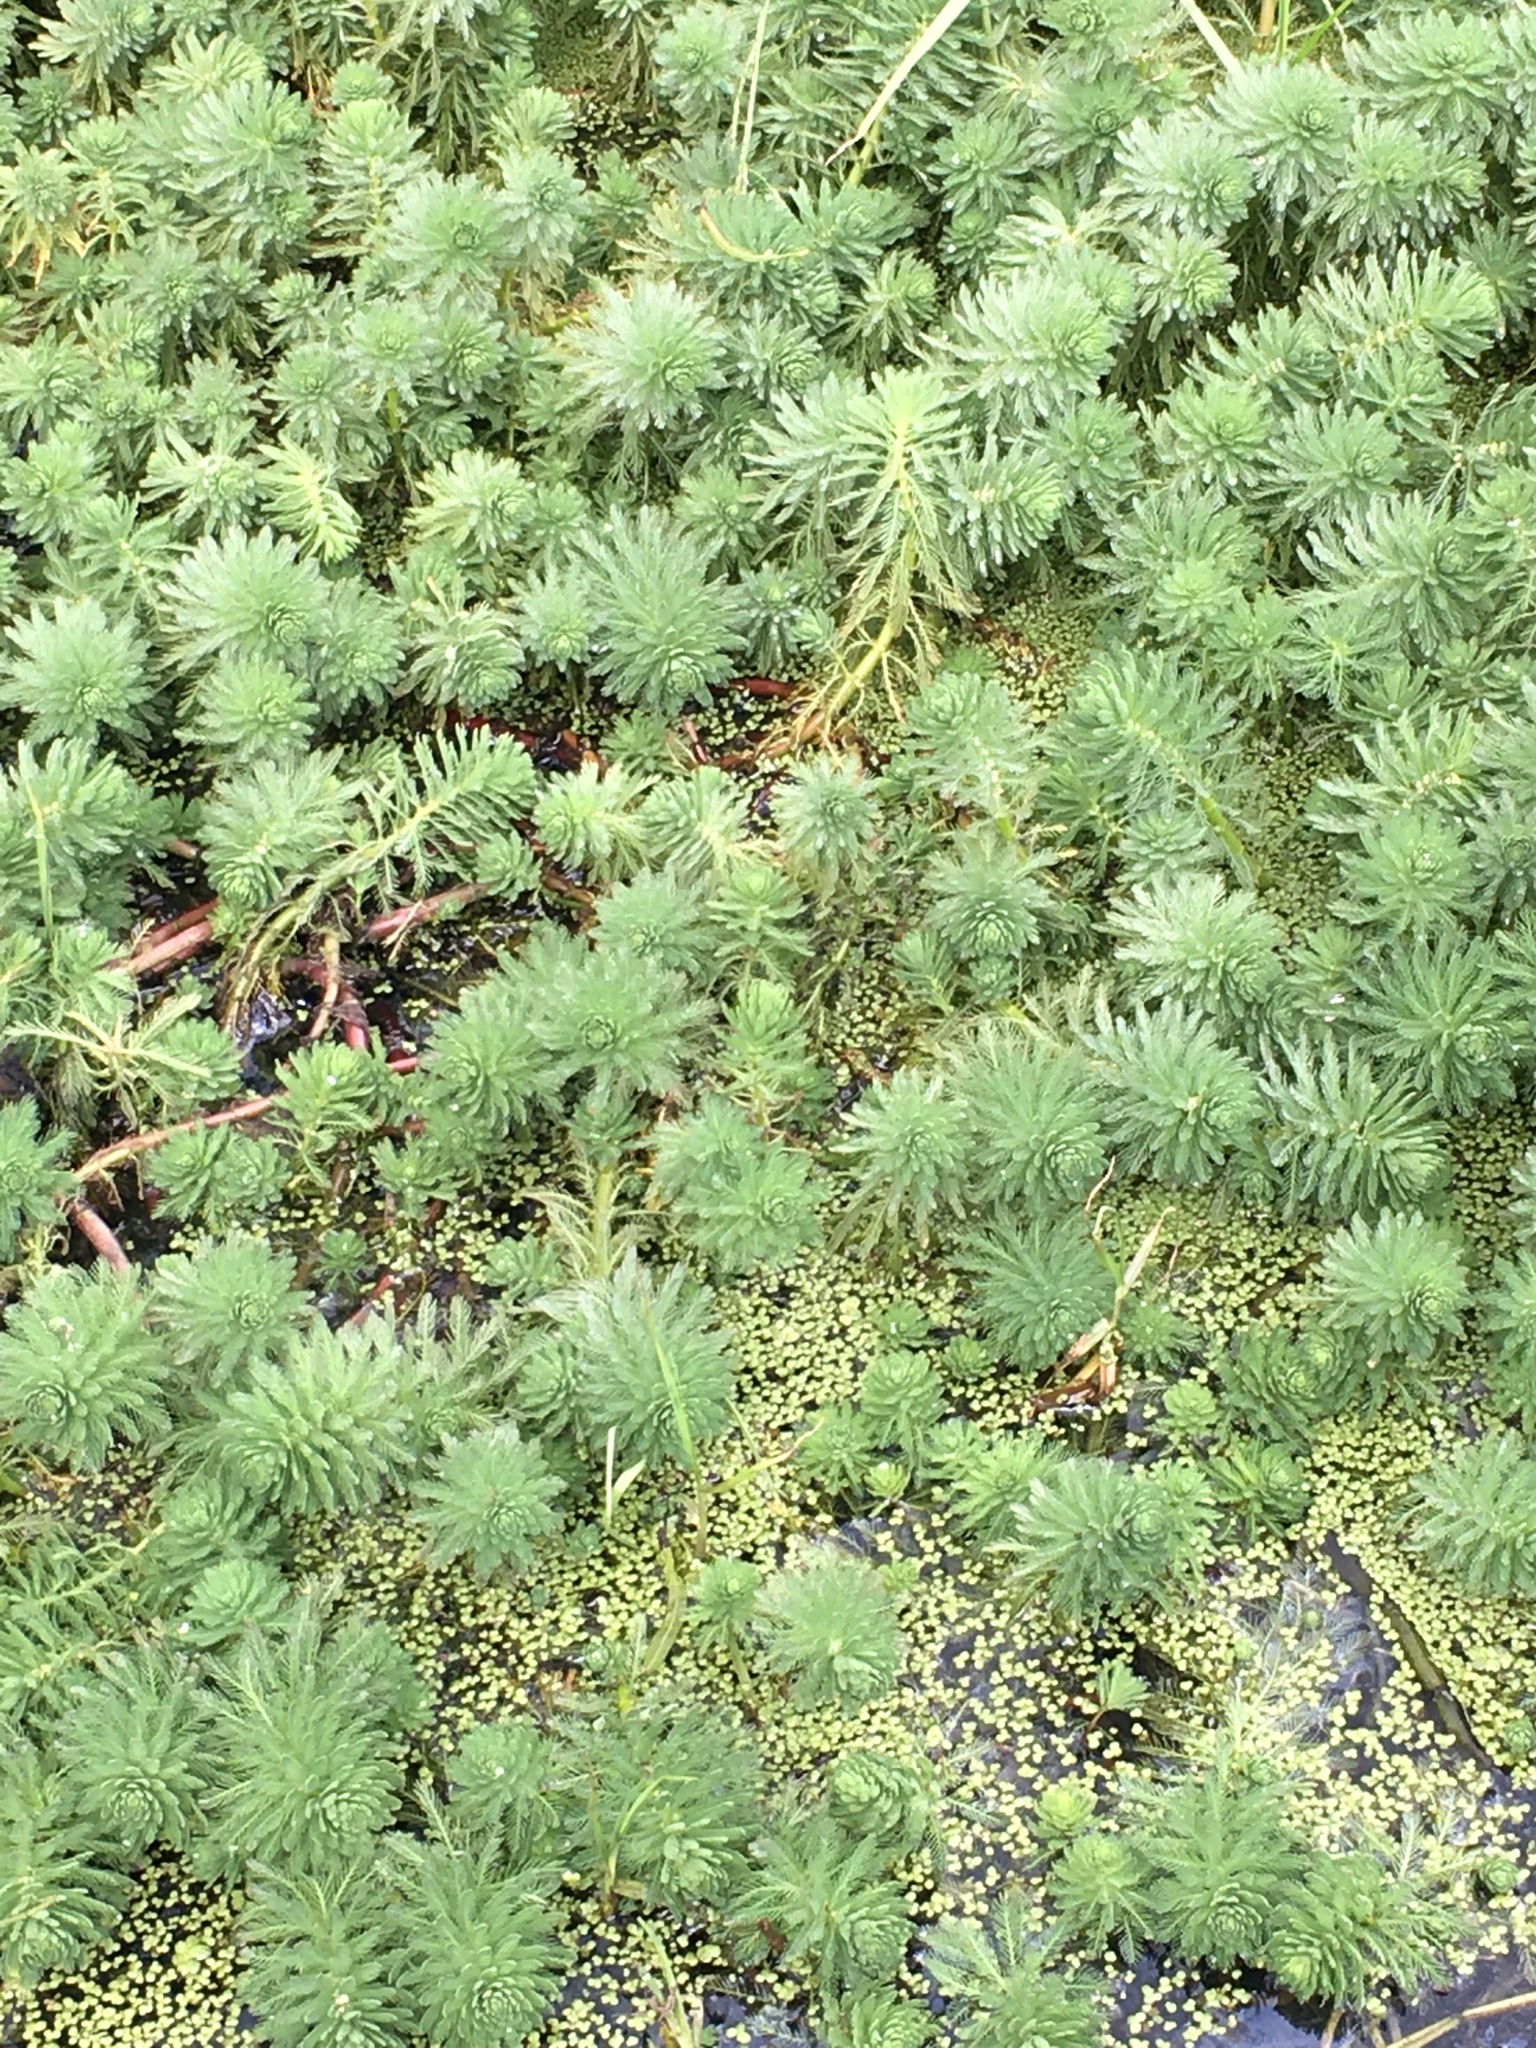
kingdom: Plantae
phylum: Tracheophyta
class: Magnoliopsida
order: Saxifragales
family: Haloragaceae
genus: Myriophyllum
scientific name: Myriophyllum aquaticum
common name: Parrot's feather
